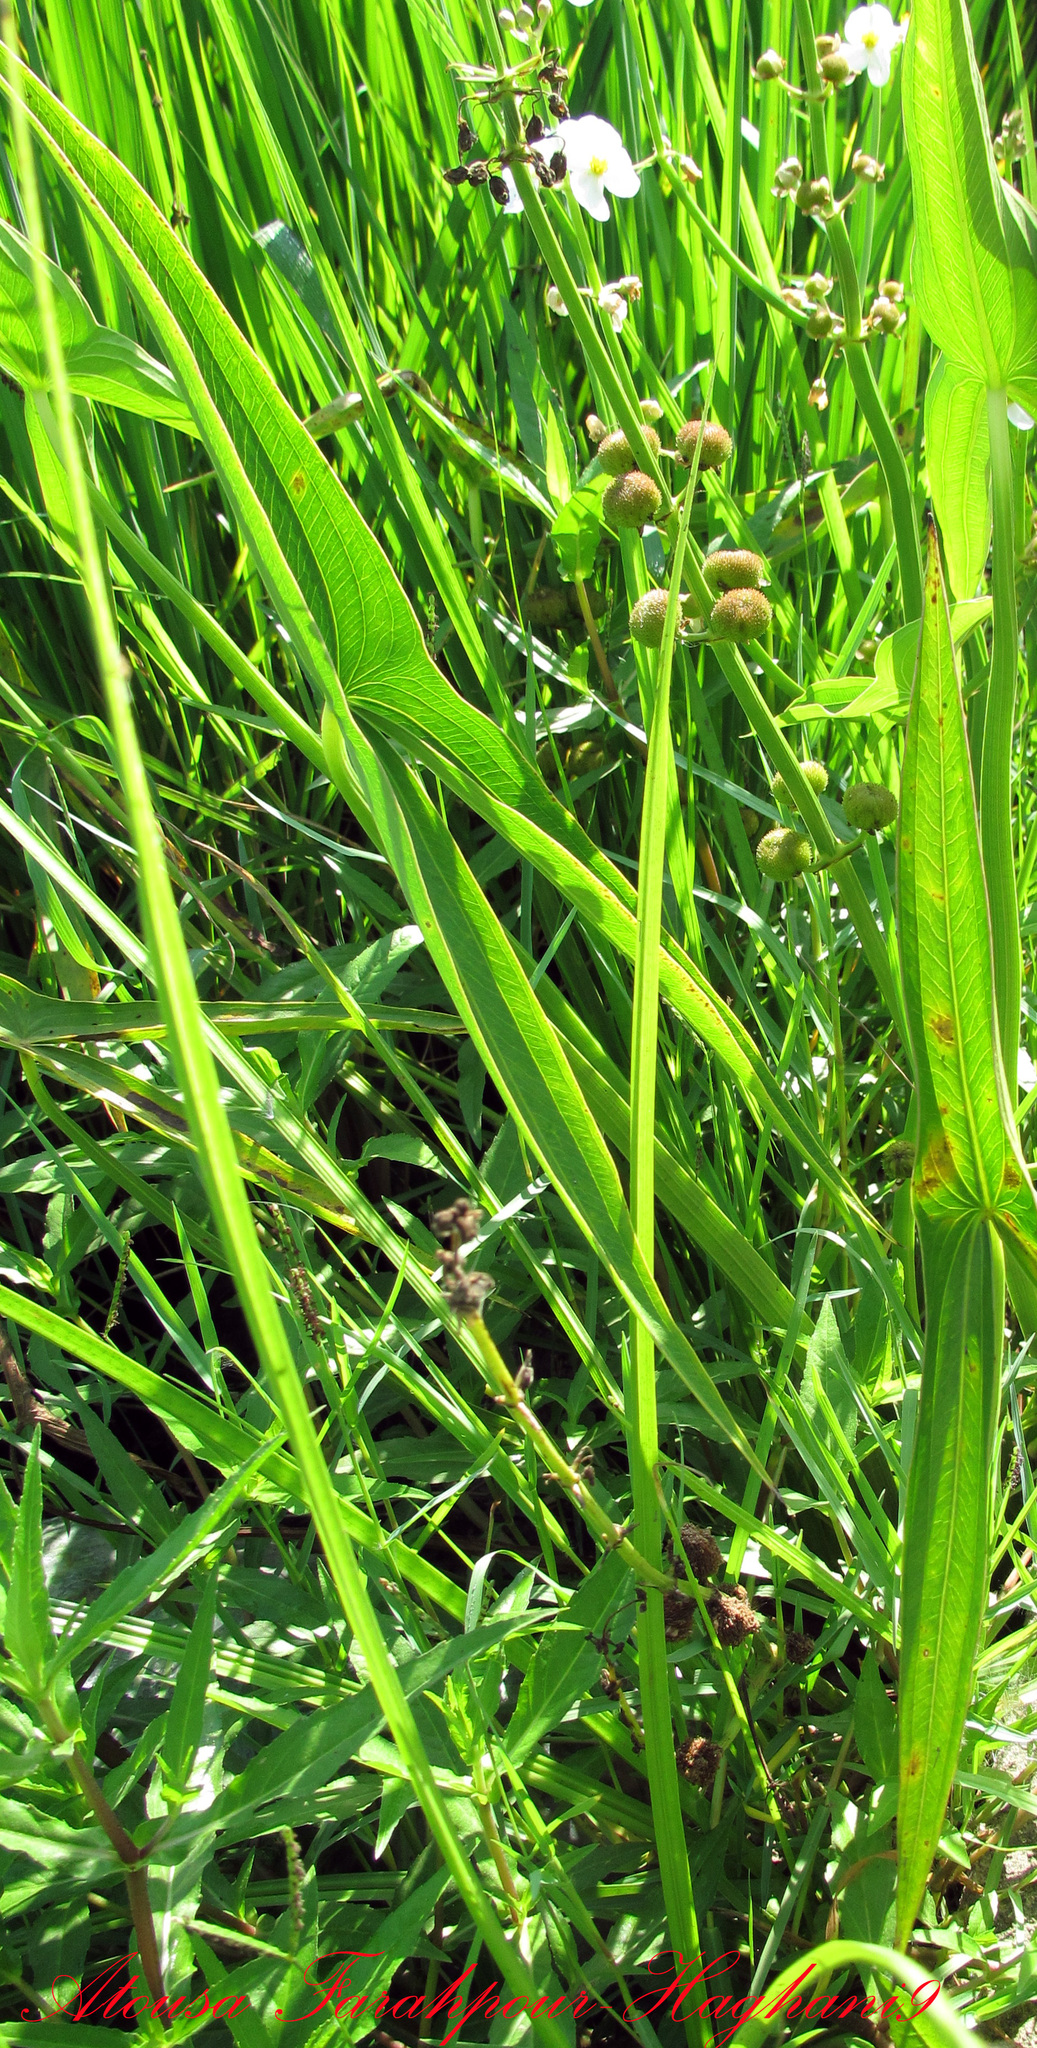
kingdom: Plantae
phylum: Tracheophyta
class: Liliopsida
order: Alismatales
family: Alismataceae
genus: Sagittaria
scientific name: Sagittaria trifolia
